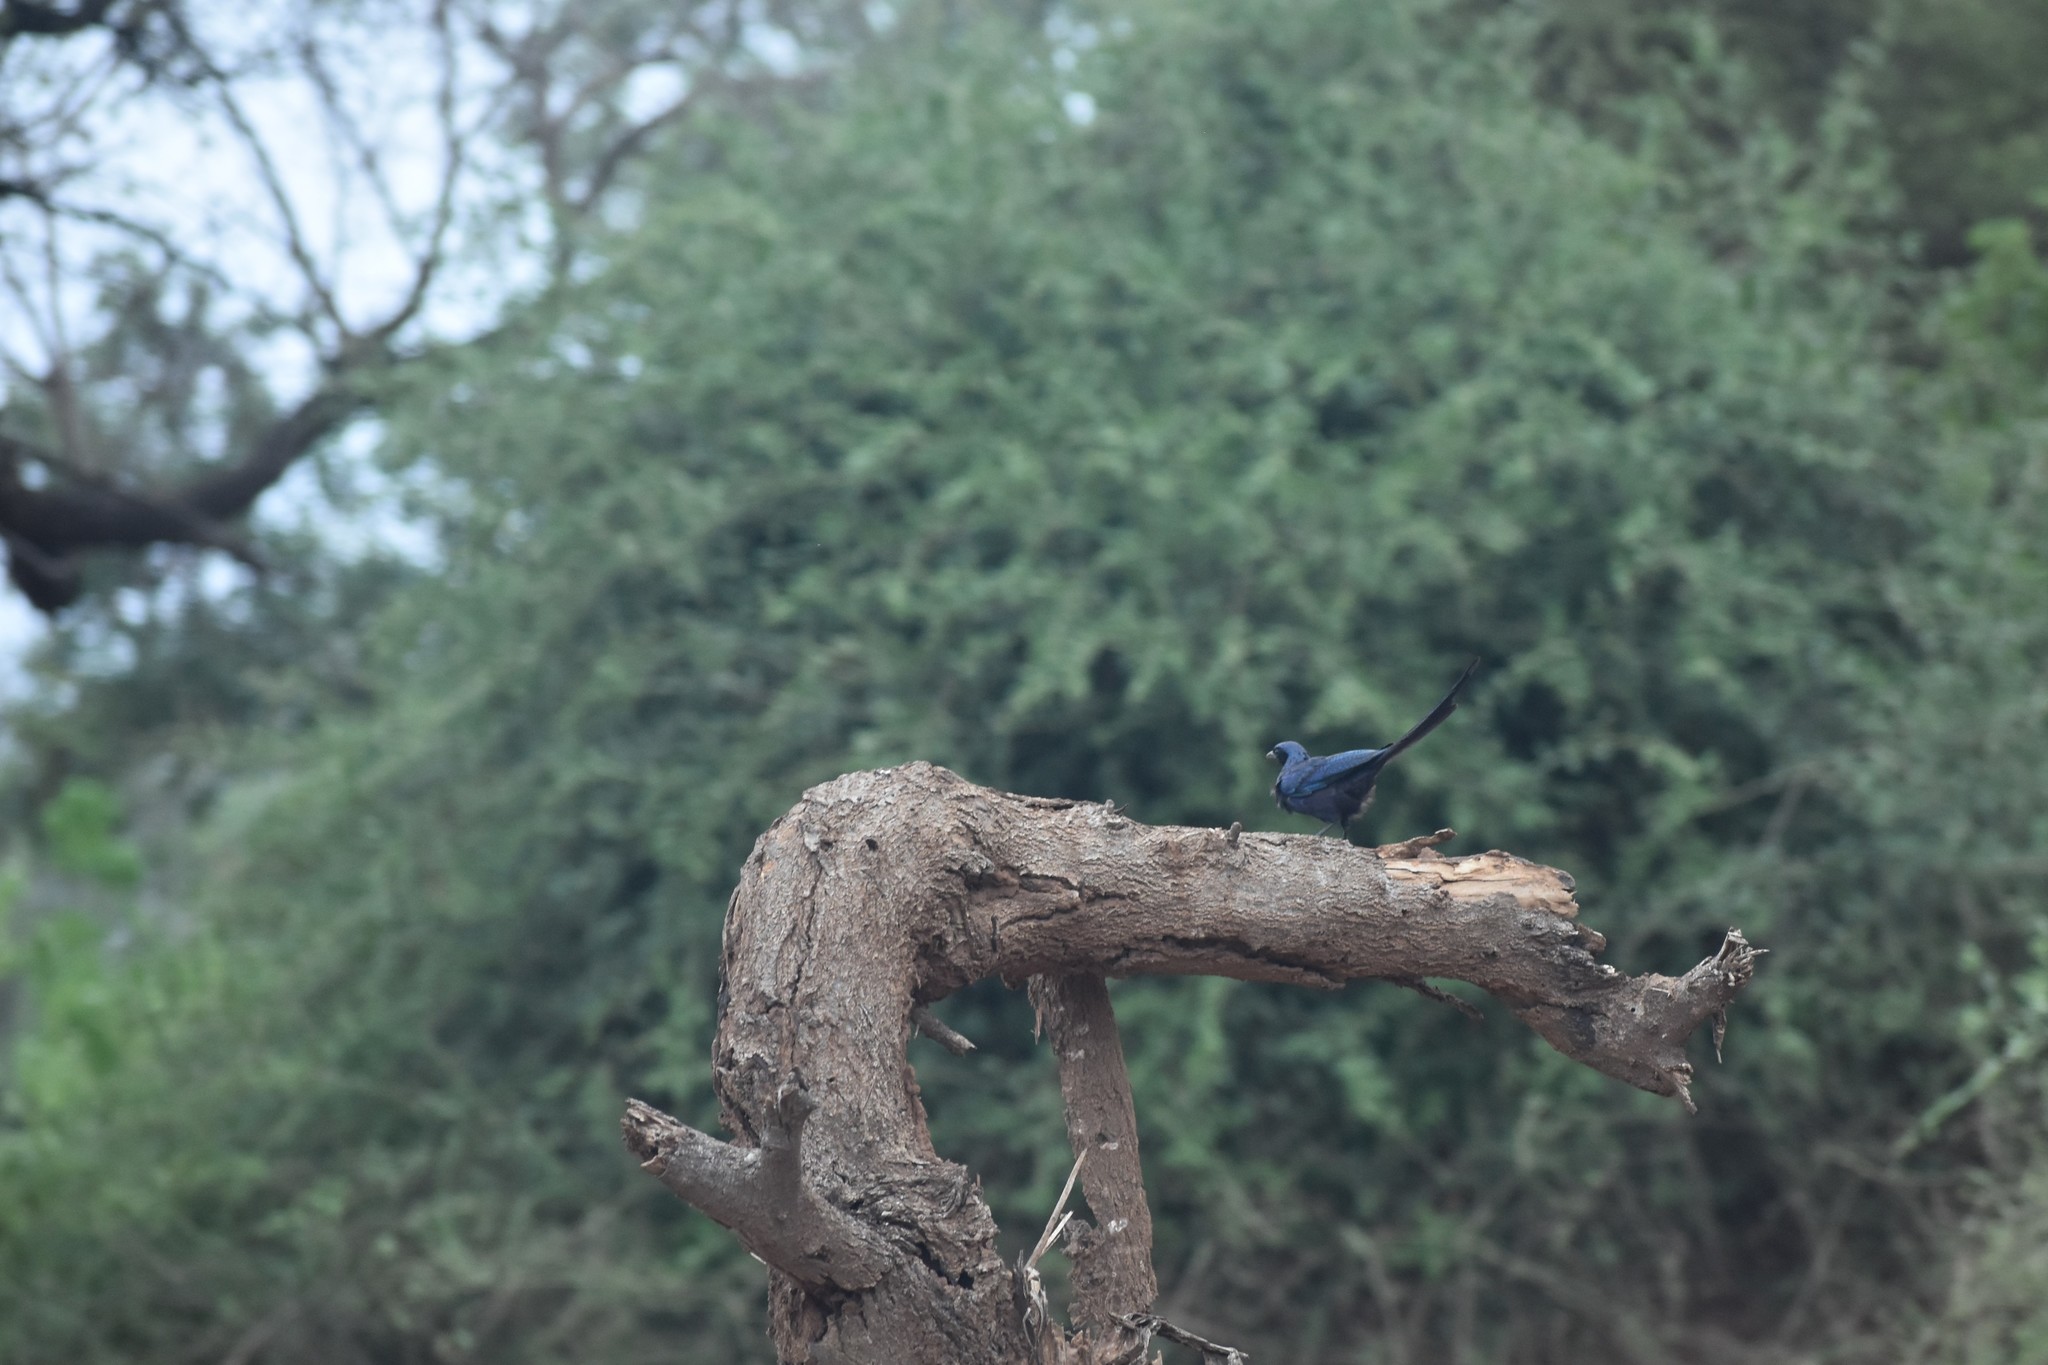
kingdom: Animalia
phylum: Chordata
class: Aves
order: Passeriformes
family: Sturnidae
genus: Lamprotornis
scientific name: Lamprotornis mevesii
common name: Meves's starling
